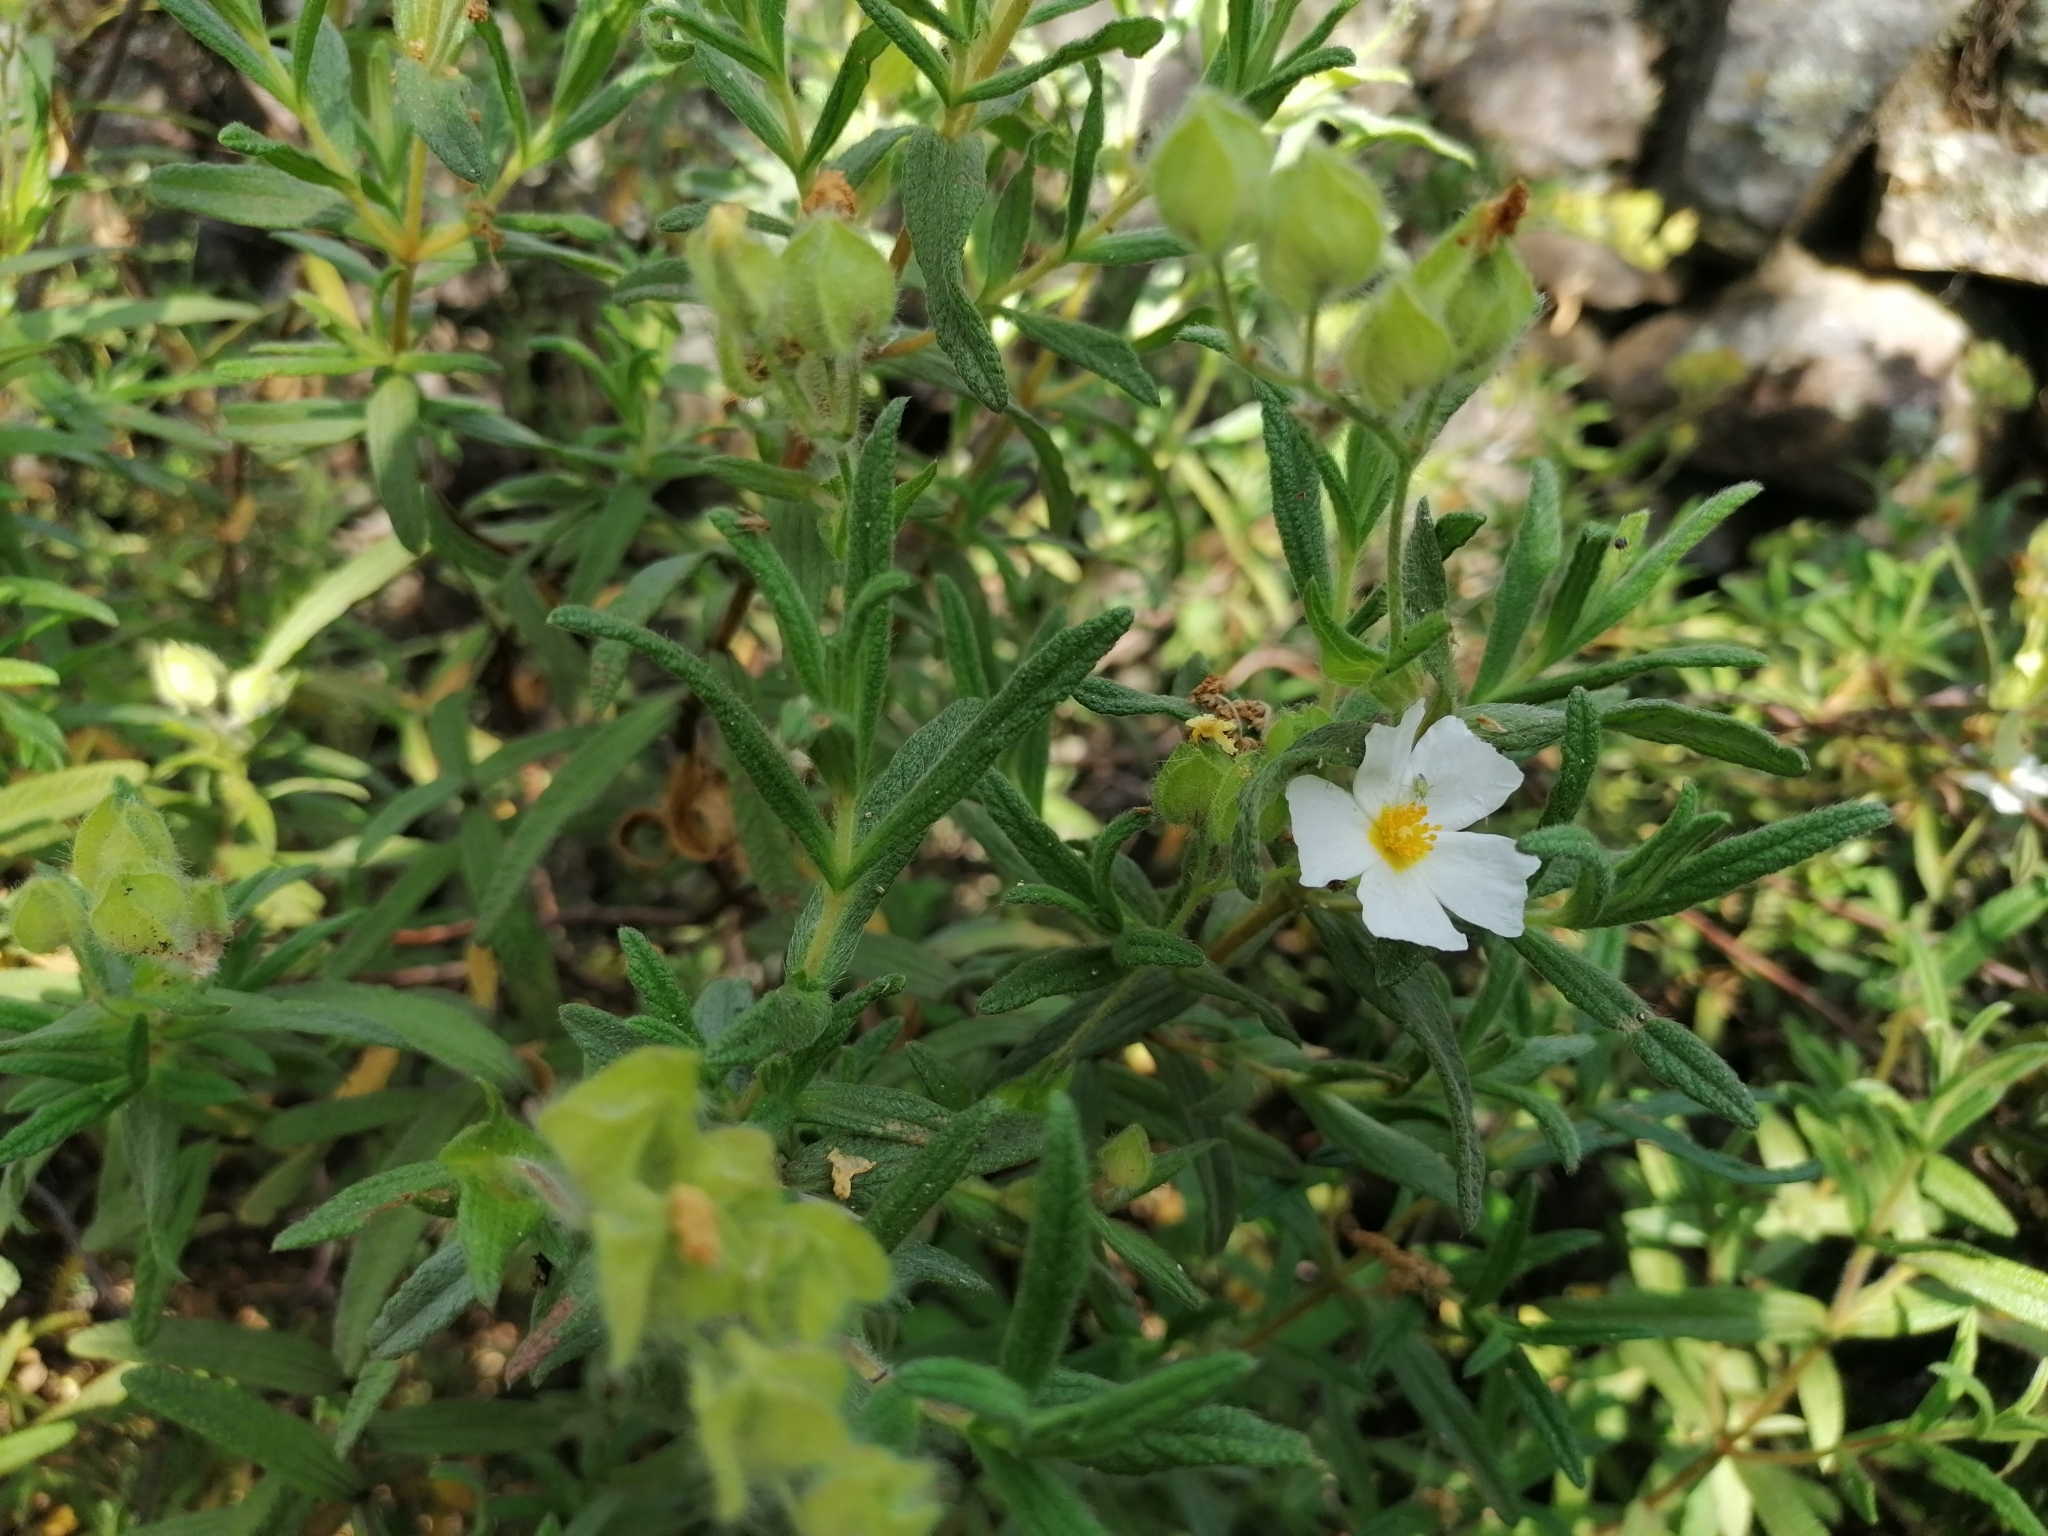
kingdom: Plantae
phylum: Tracheophyta
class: Magnoliopsida
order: Malvales
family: Cistaceae
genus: Cistus
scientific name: Cistus monspeliensis
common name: Montpelier cistus
